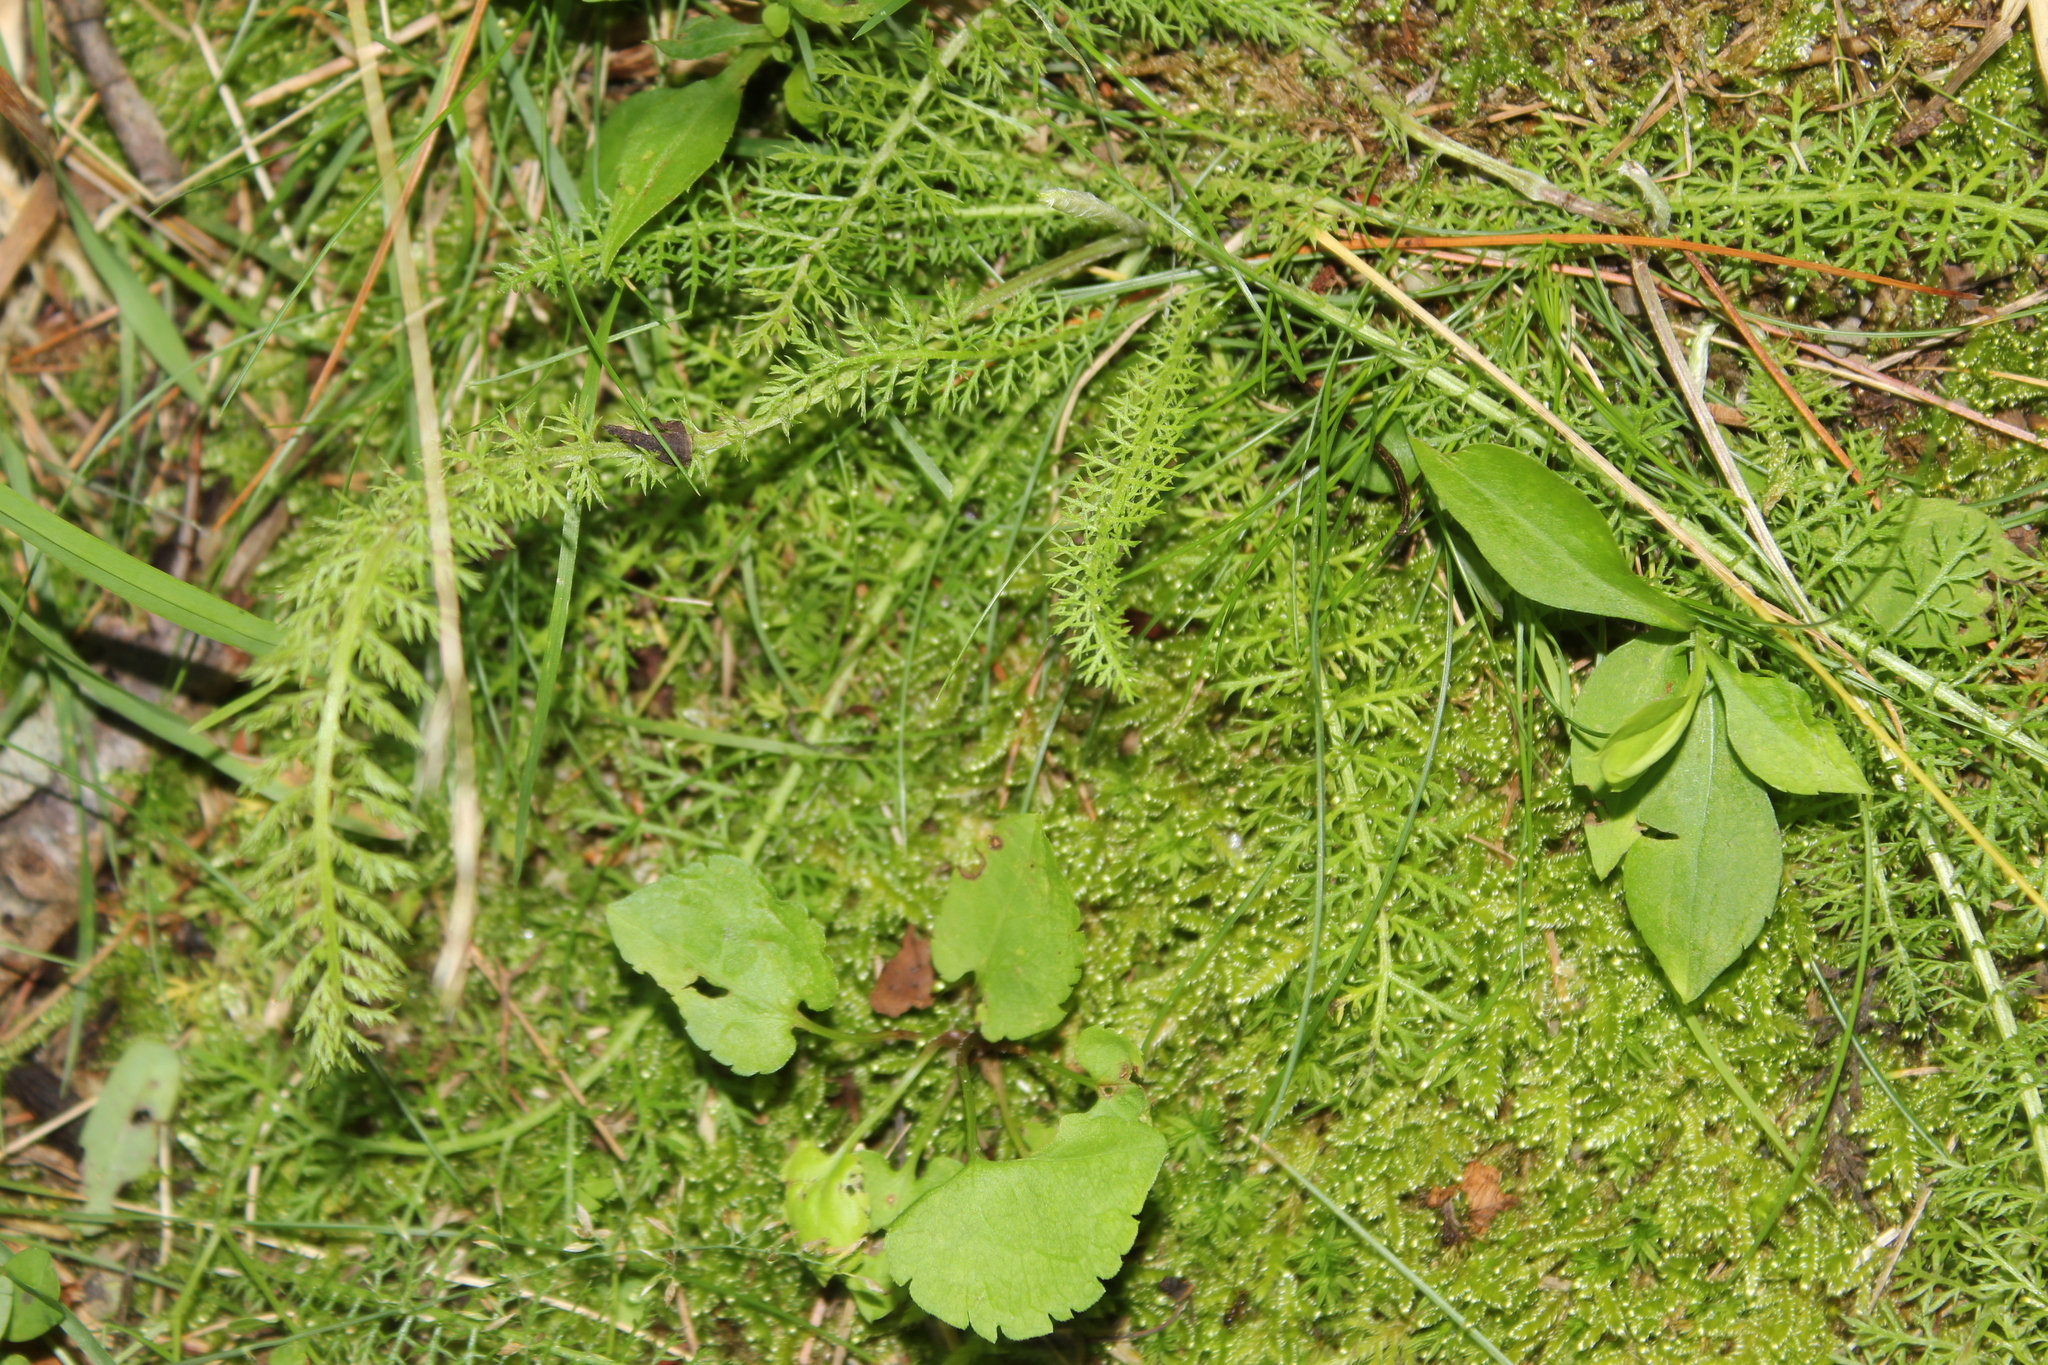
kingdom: Plantae
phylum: Tracheophyta
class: Magnoliopsida
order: Asterales
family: Asteraceae
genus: Achillea
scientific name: Achillea millefolium
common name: Yarrow
